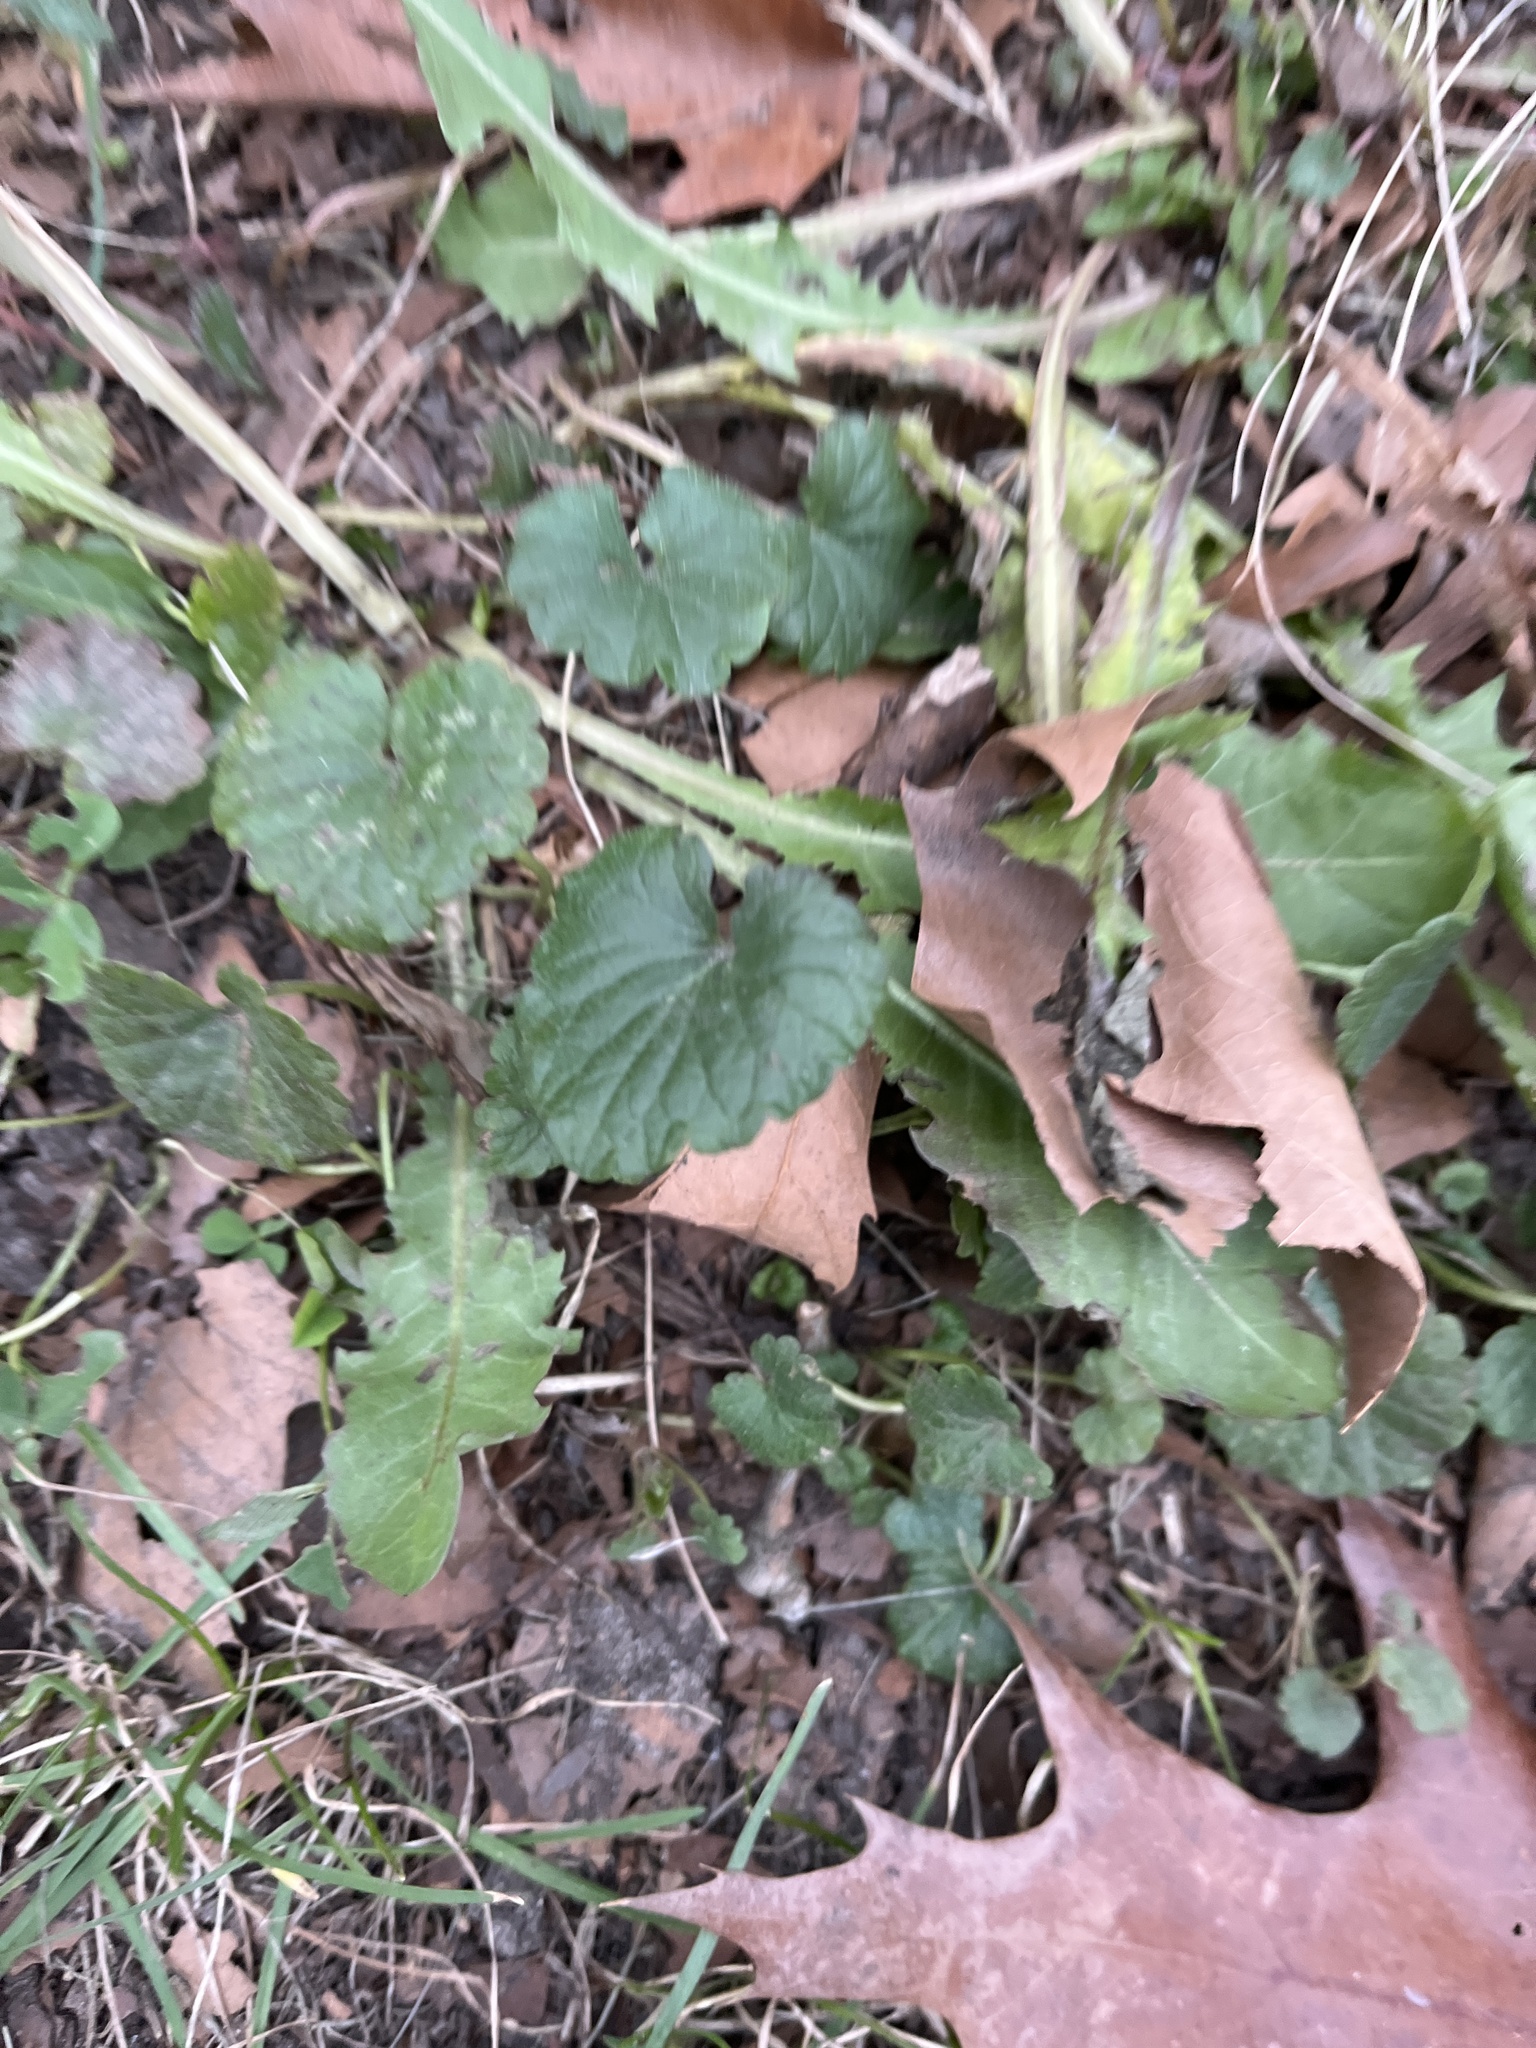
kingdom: Plantae
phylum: Tracheophyta
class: Magnoliopsida
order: Lamiales
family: Lamiaceae
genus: Glechoma
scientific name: Glechoma hederacea
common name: Ground ivy
